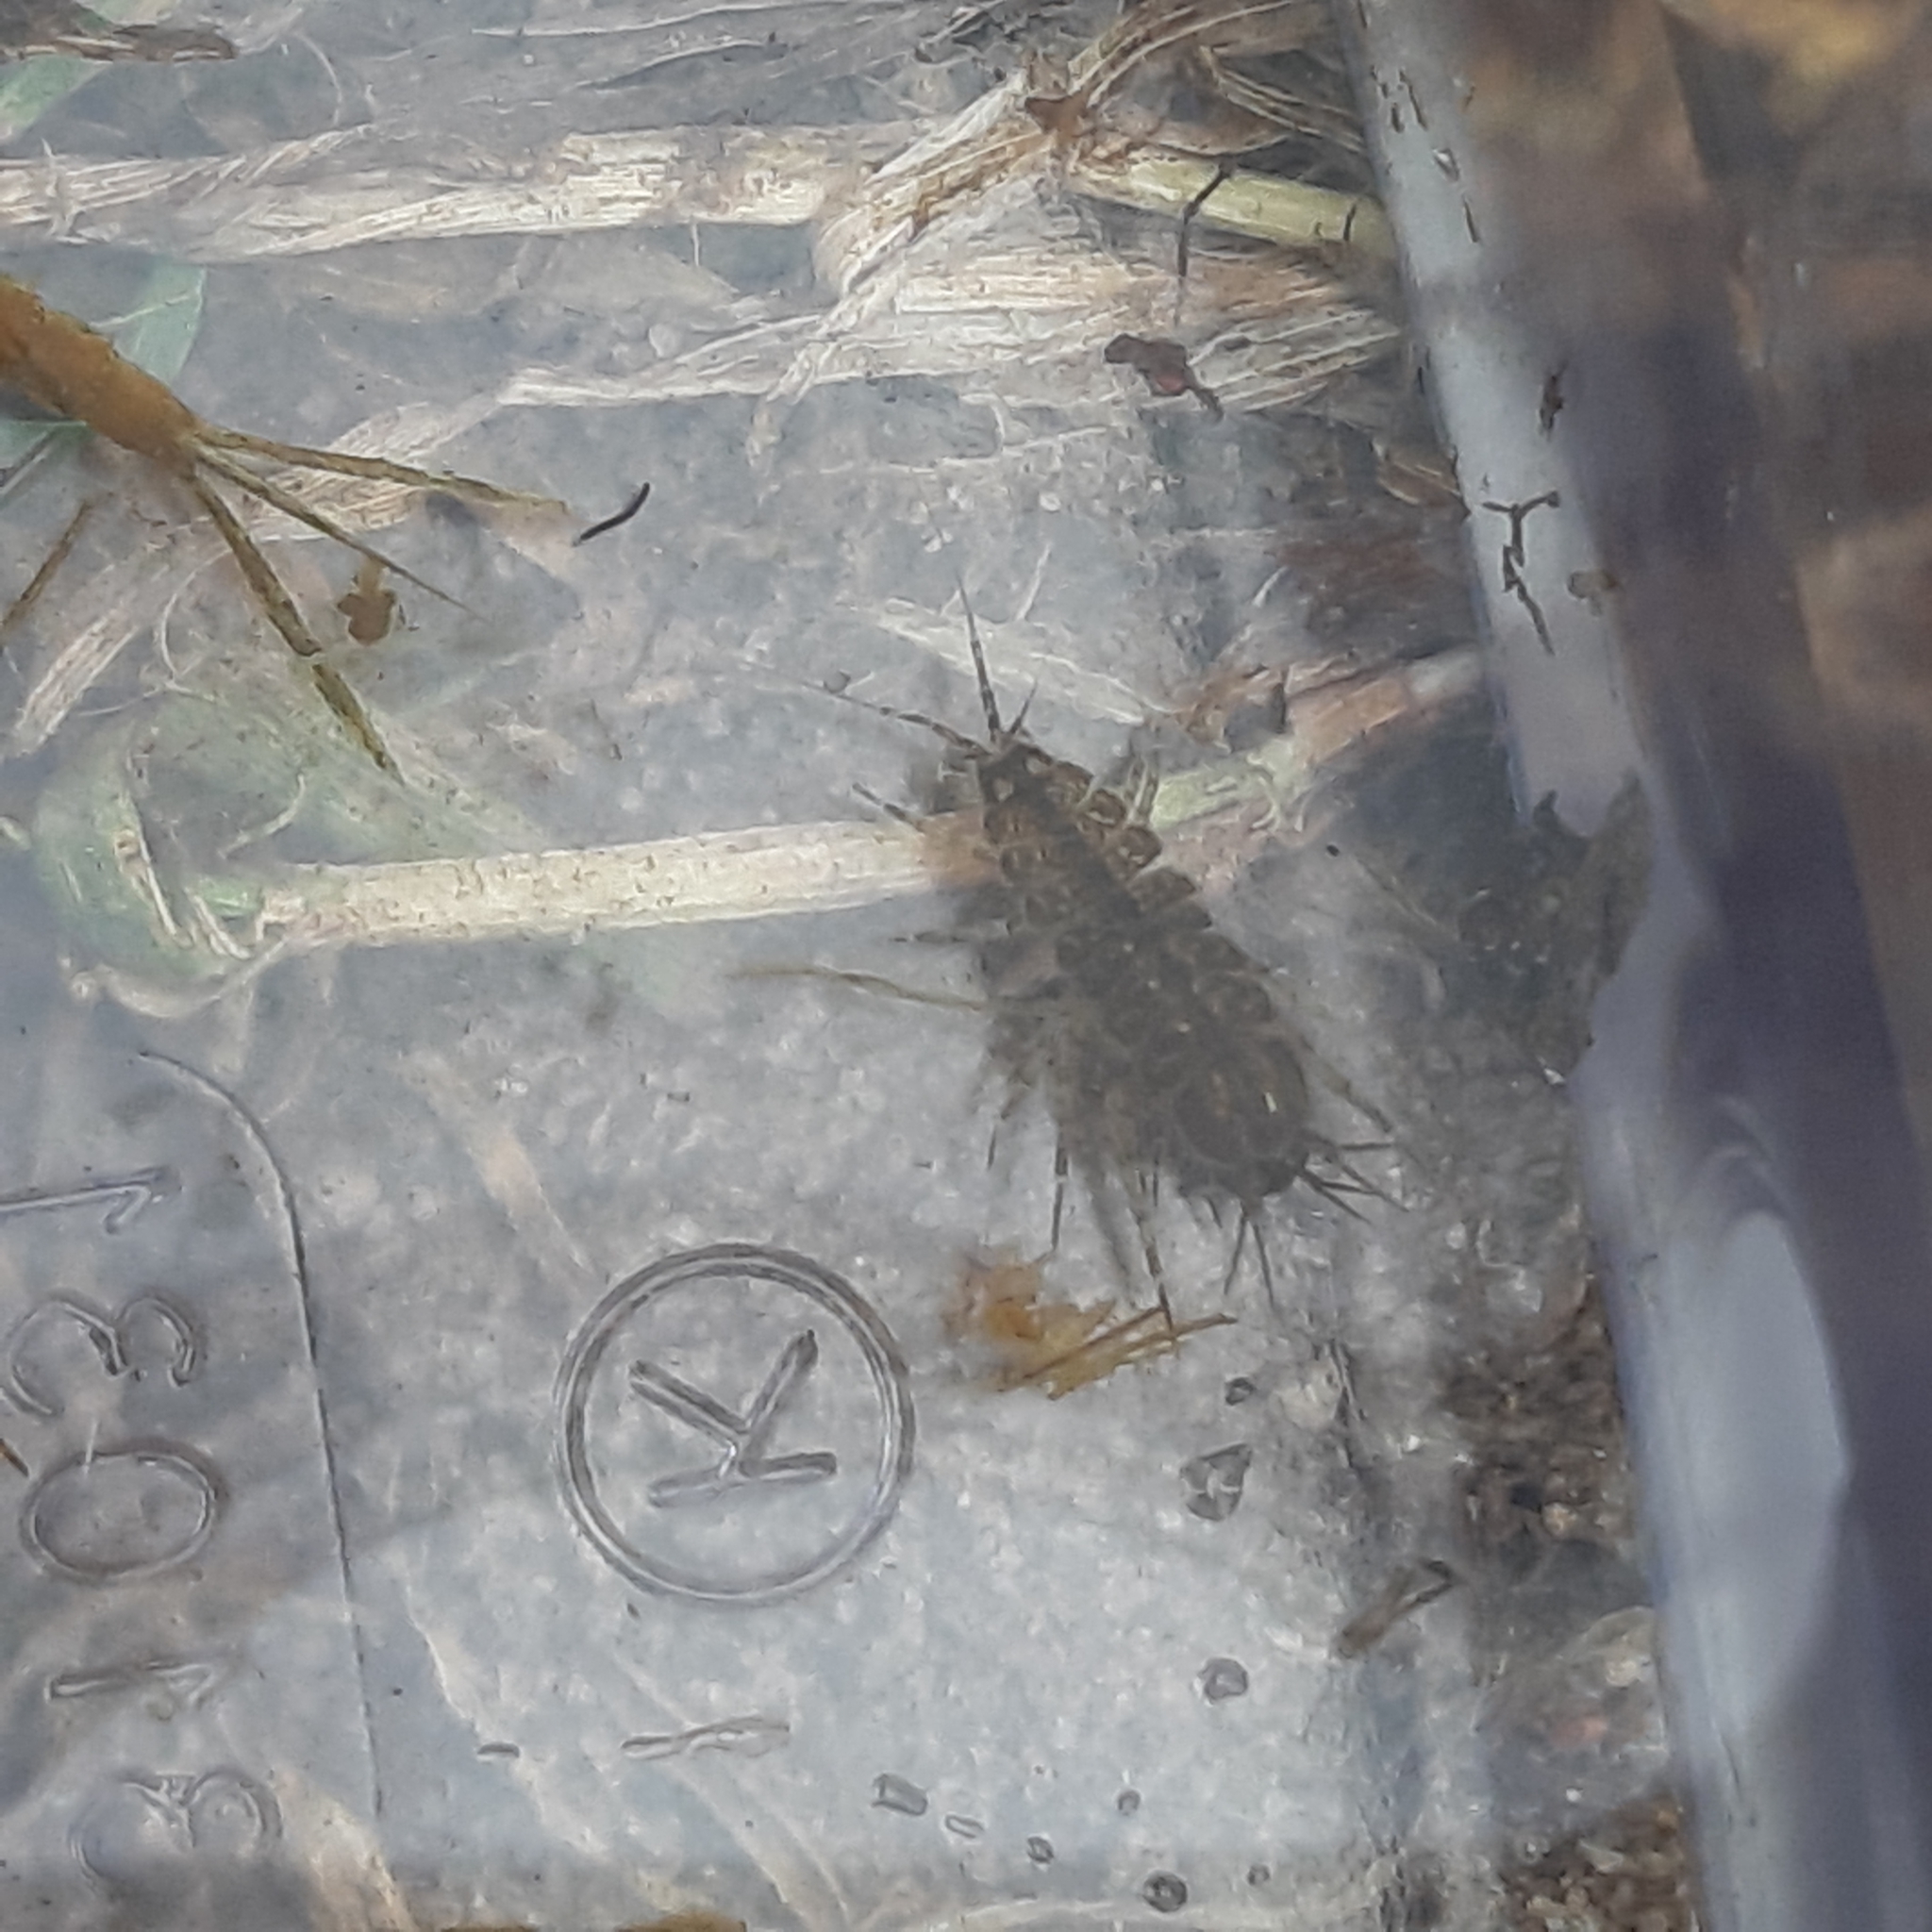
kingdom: Animalia
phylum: Arthropoda
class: Malacostraca
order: Isopoda
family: Asellidae
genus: Asellus
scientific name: Asellus aquaticus
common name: Water hog lice/slaters
